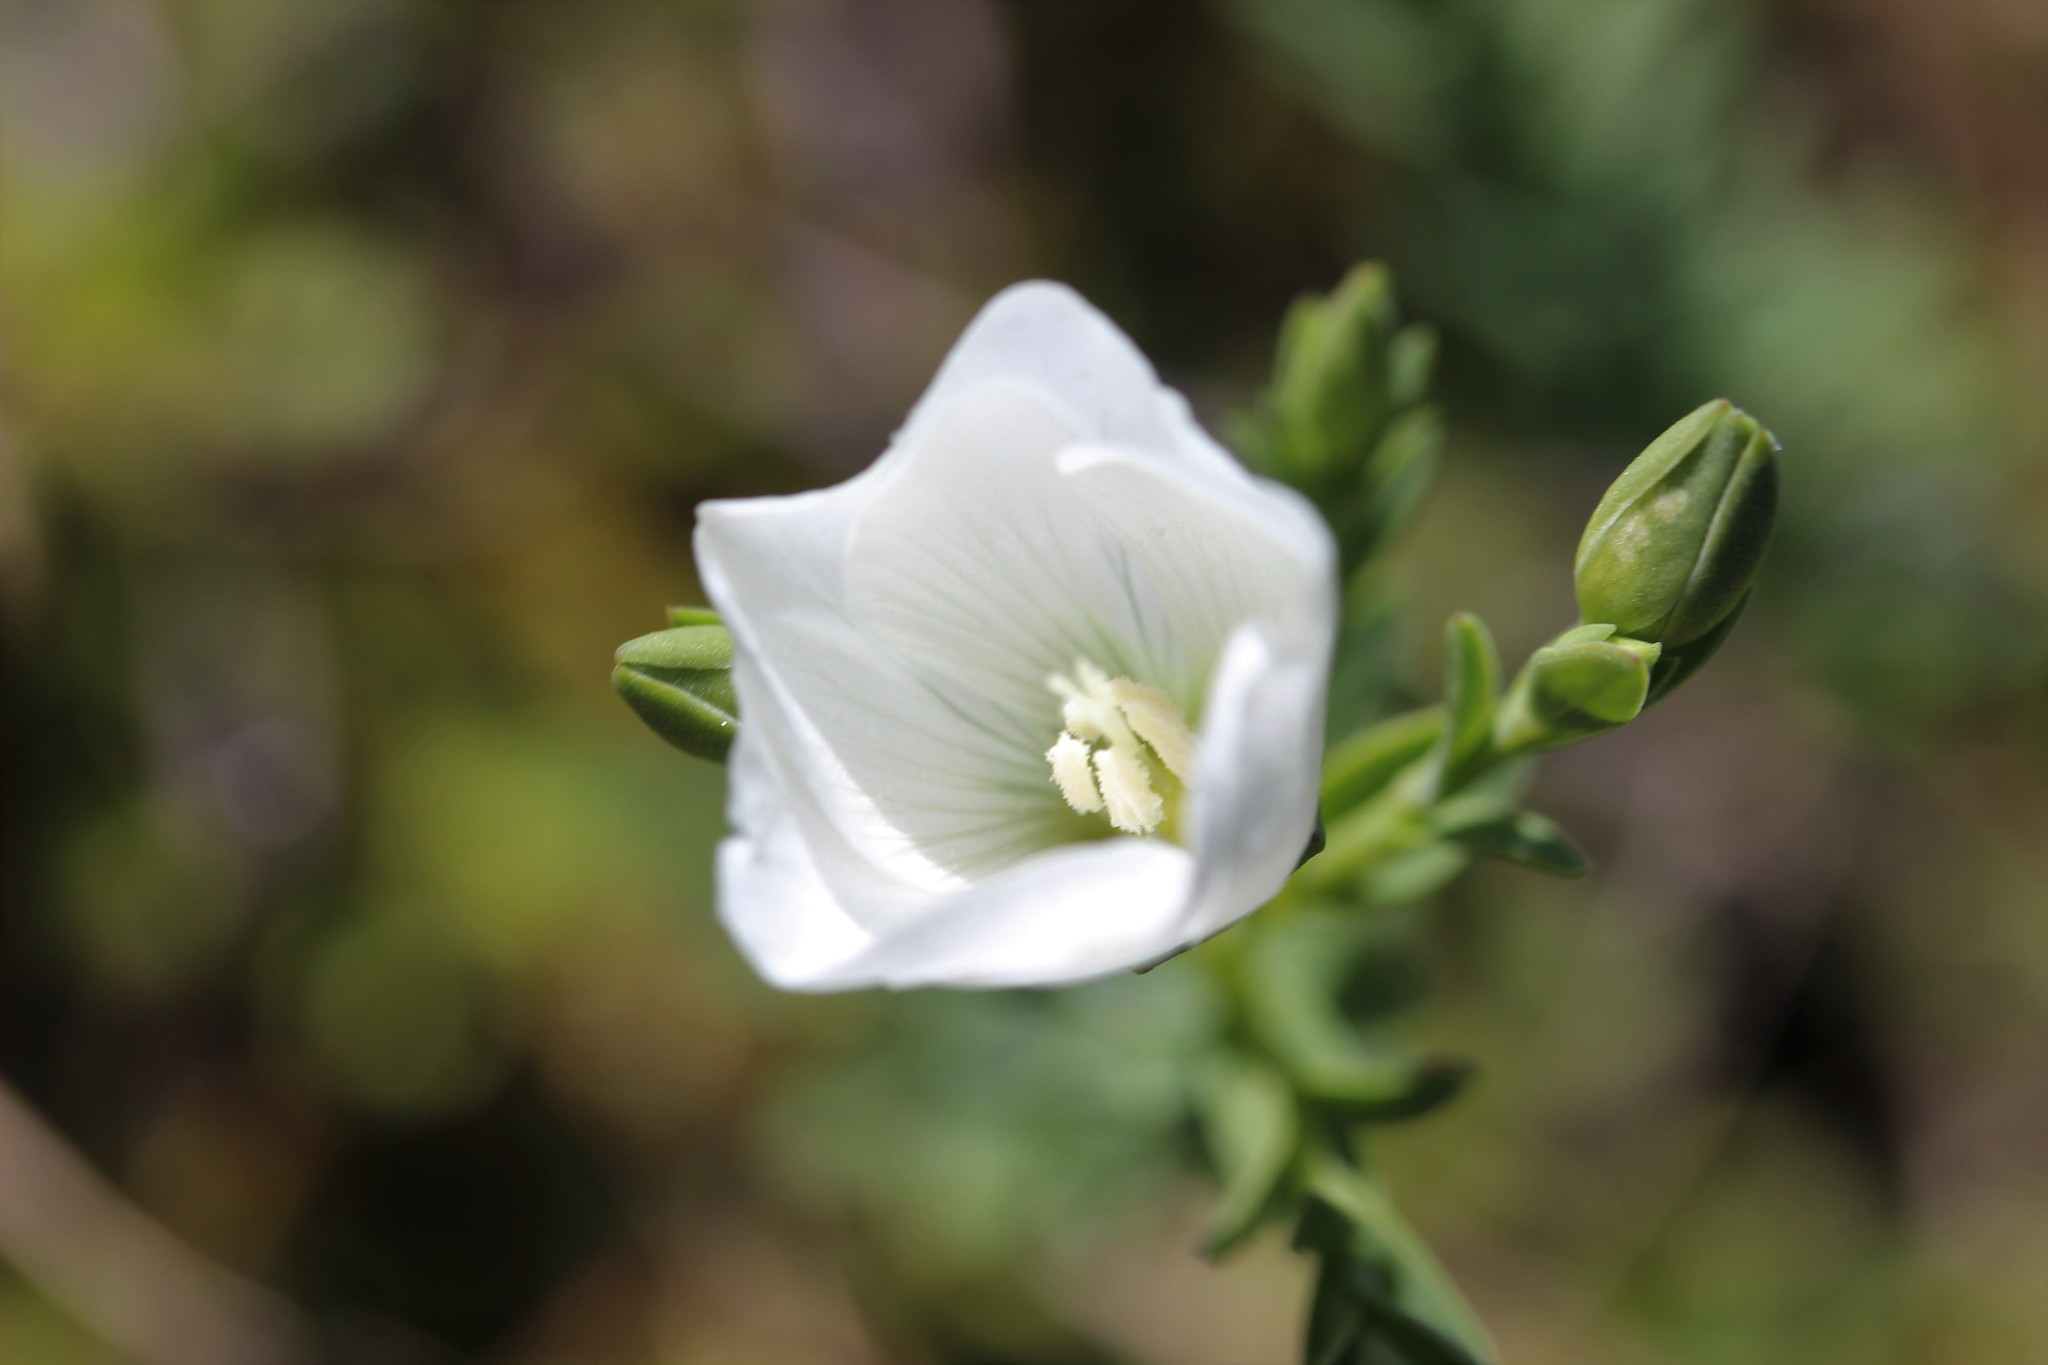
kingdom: Plantae
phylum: Tracheophyta
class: Magnoliopsida
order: Malpighiales
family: Linaceae
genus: Linum
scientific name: Linum monogynum
